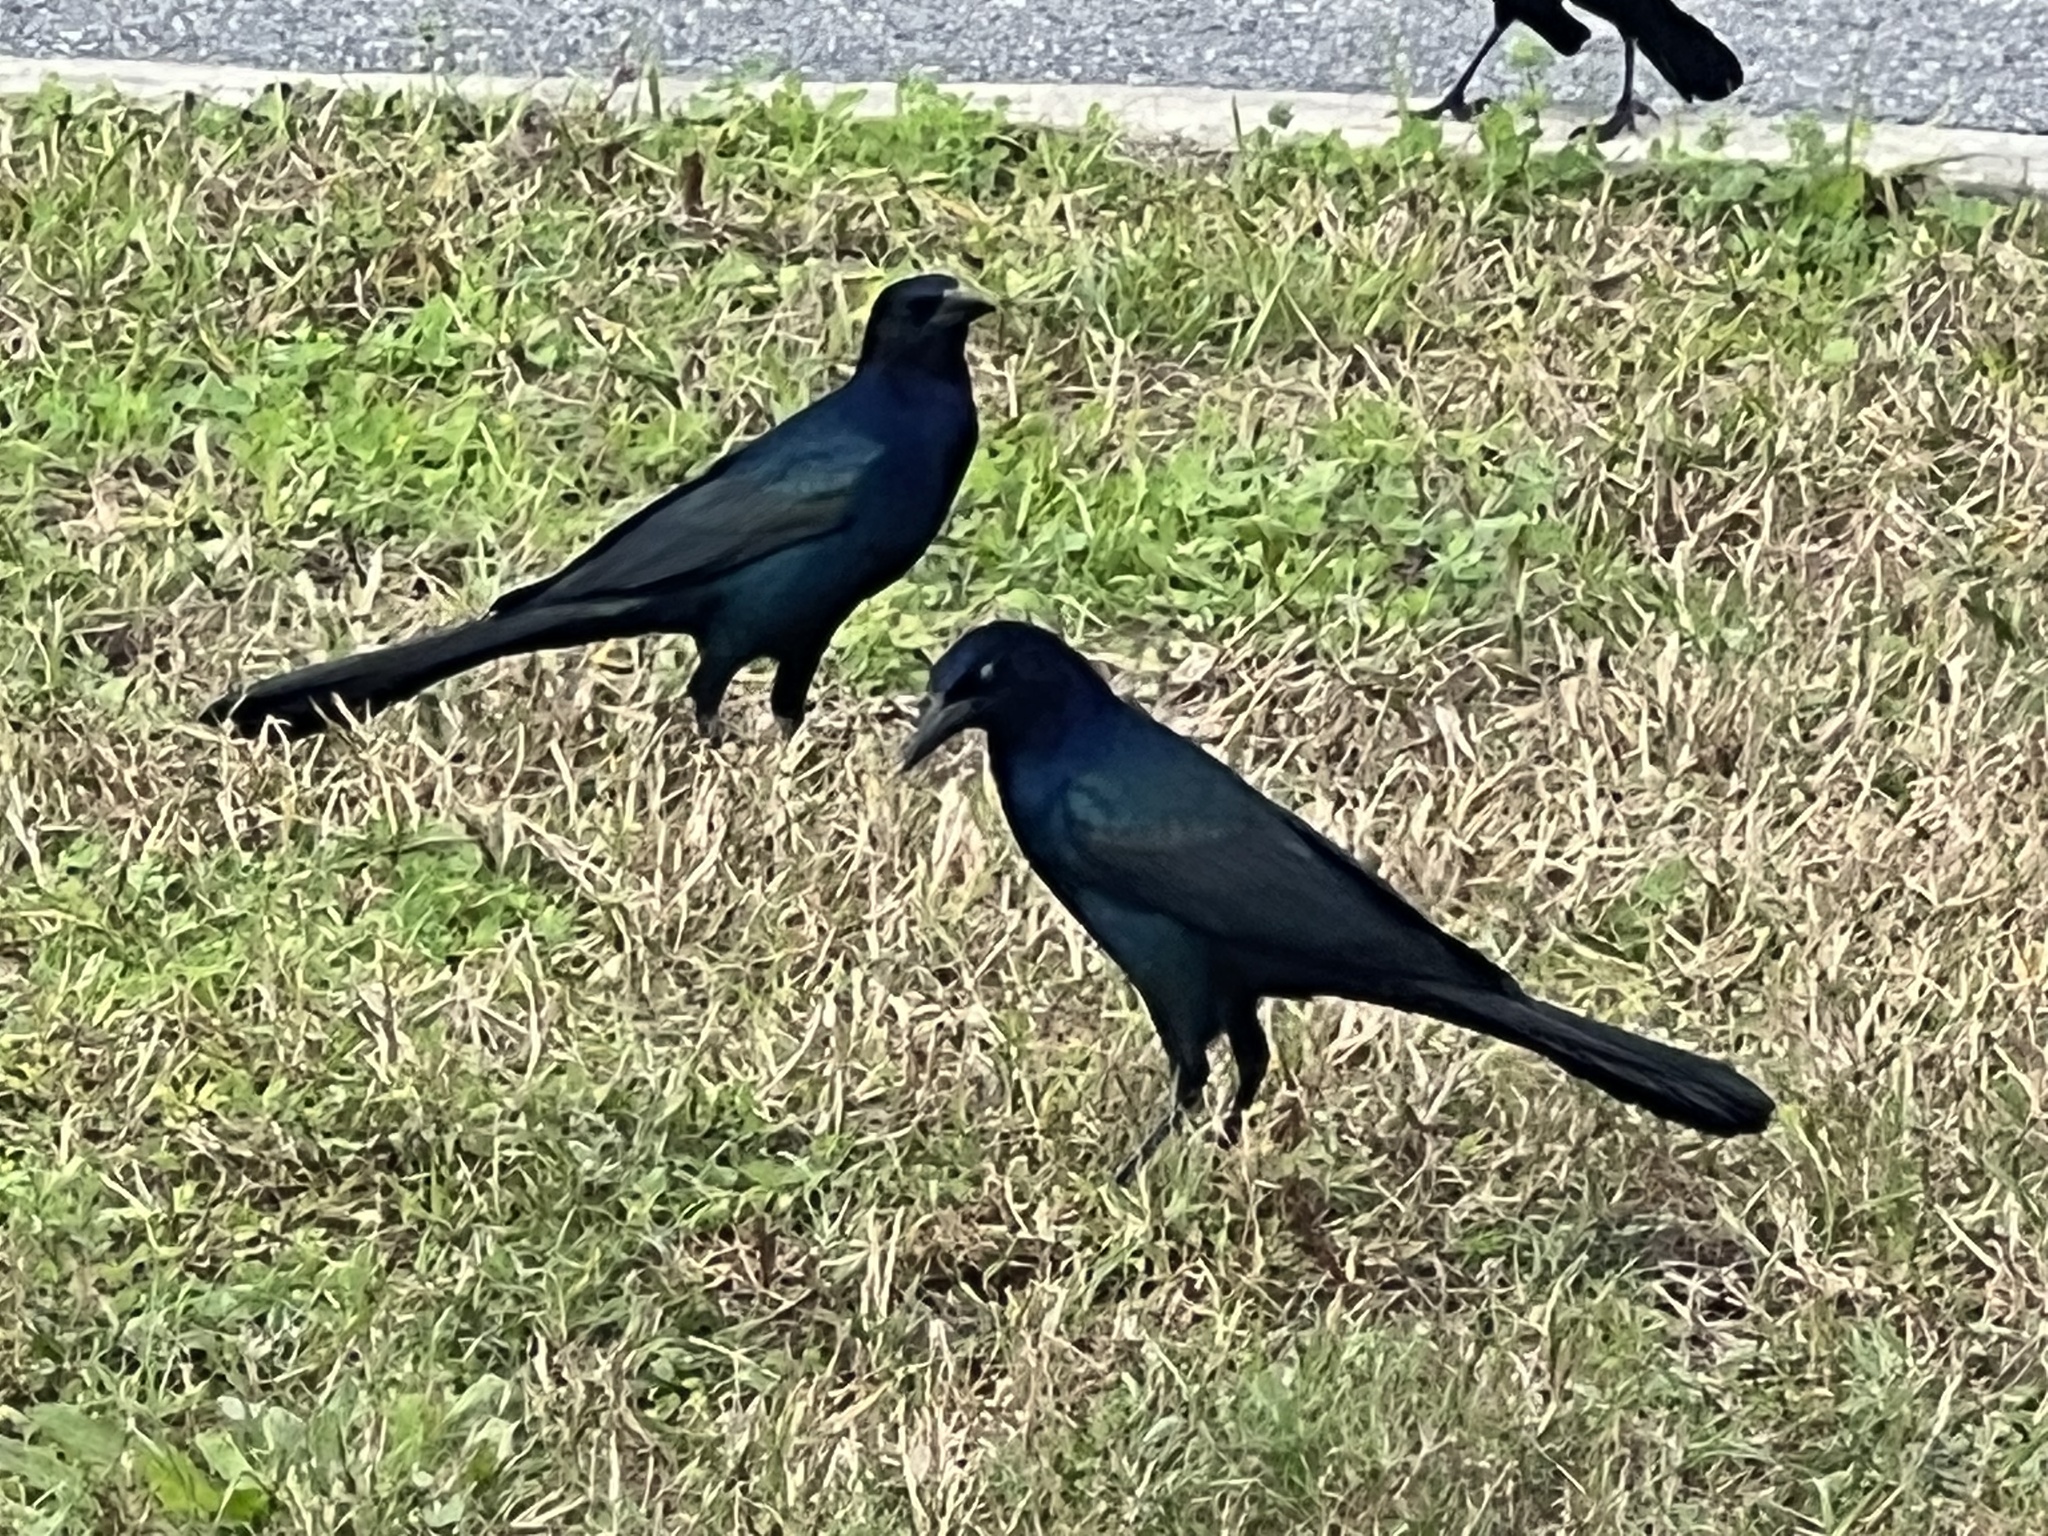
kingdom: Animalia
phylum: Chordata
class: Aves
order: Passeriformes
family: Icteridae
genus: Quiscalus
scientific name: Quiscalus major
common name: Boat-tailed grackle
